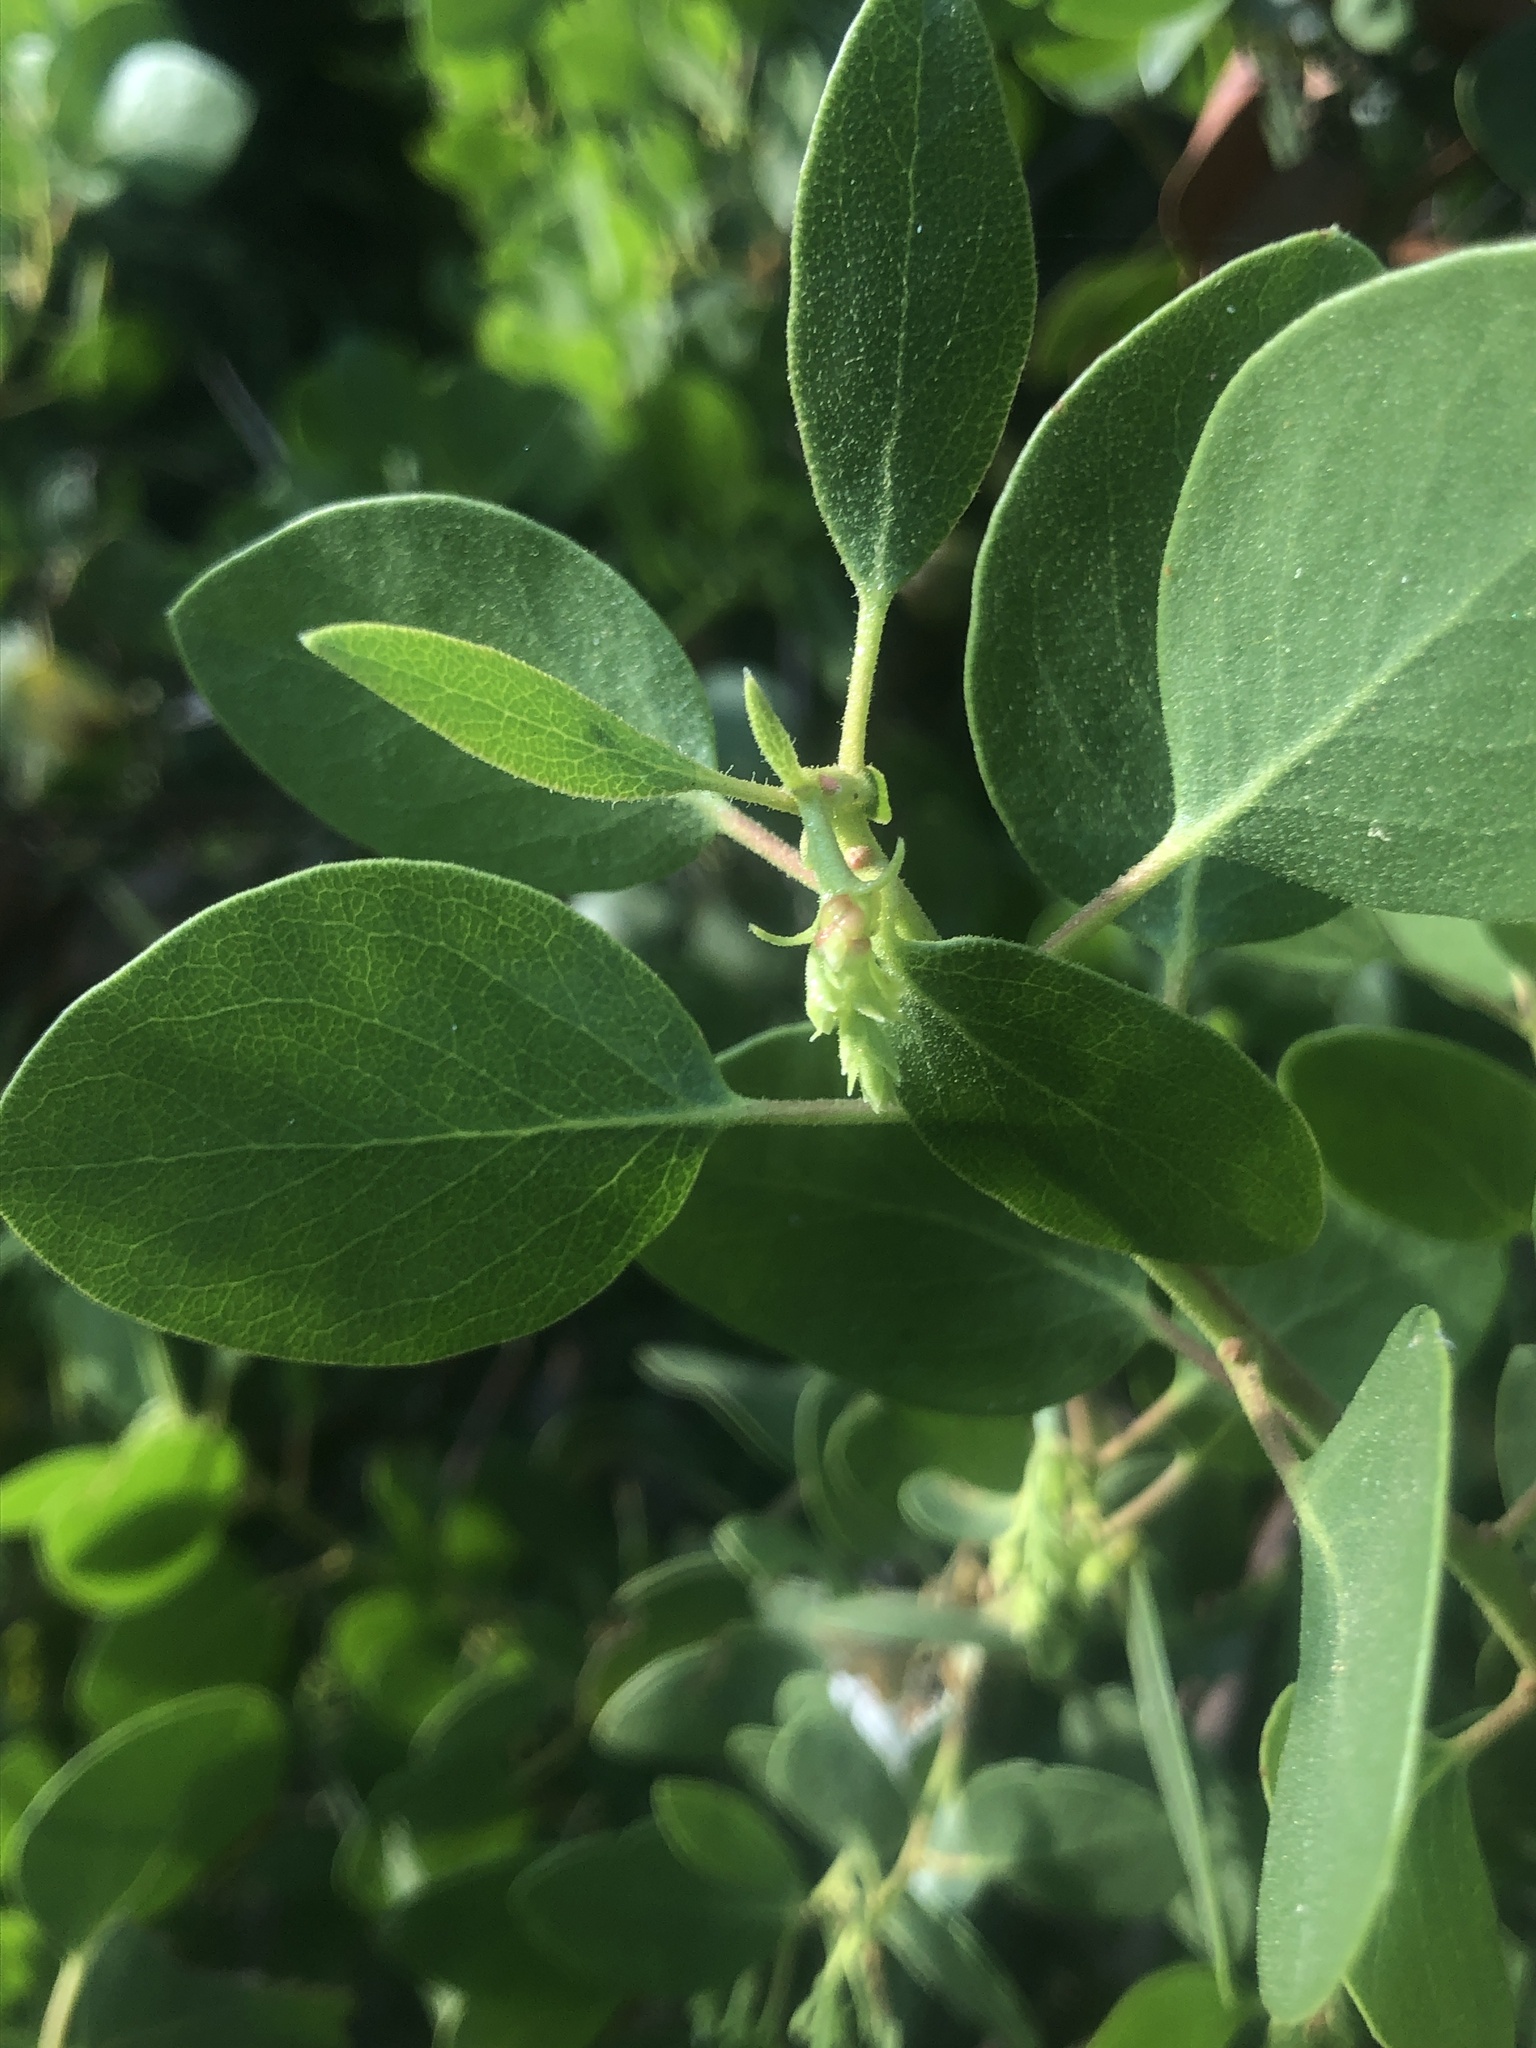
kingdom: Plantae
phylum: Tracheophyta
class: Magnoliopsida
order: Ericales
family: Ericaceae
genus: Arctostaphylos
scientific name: Arctostaphylos patula
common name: Green-leaf manzanita
